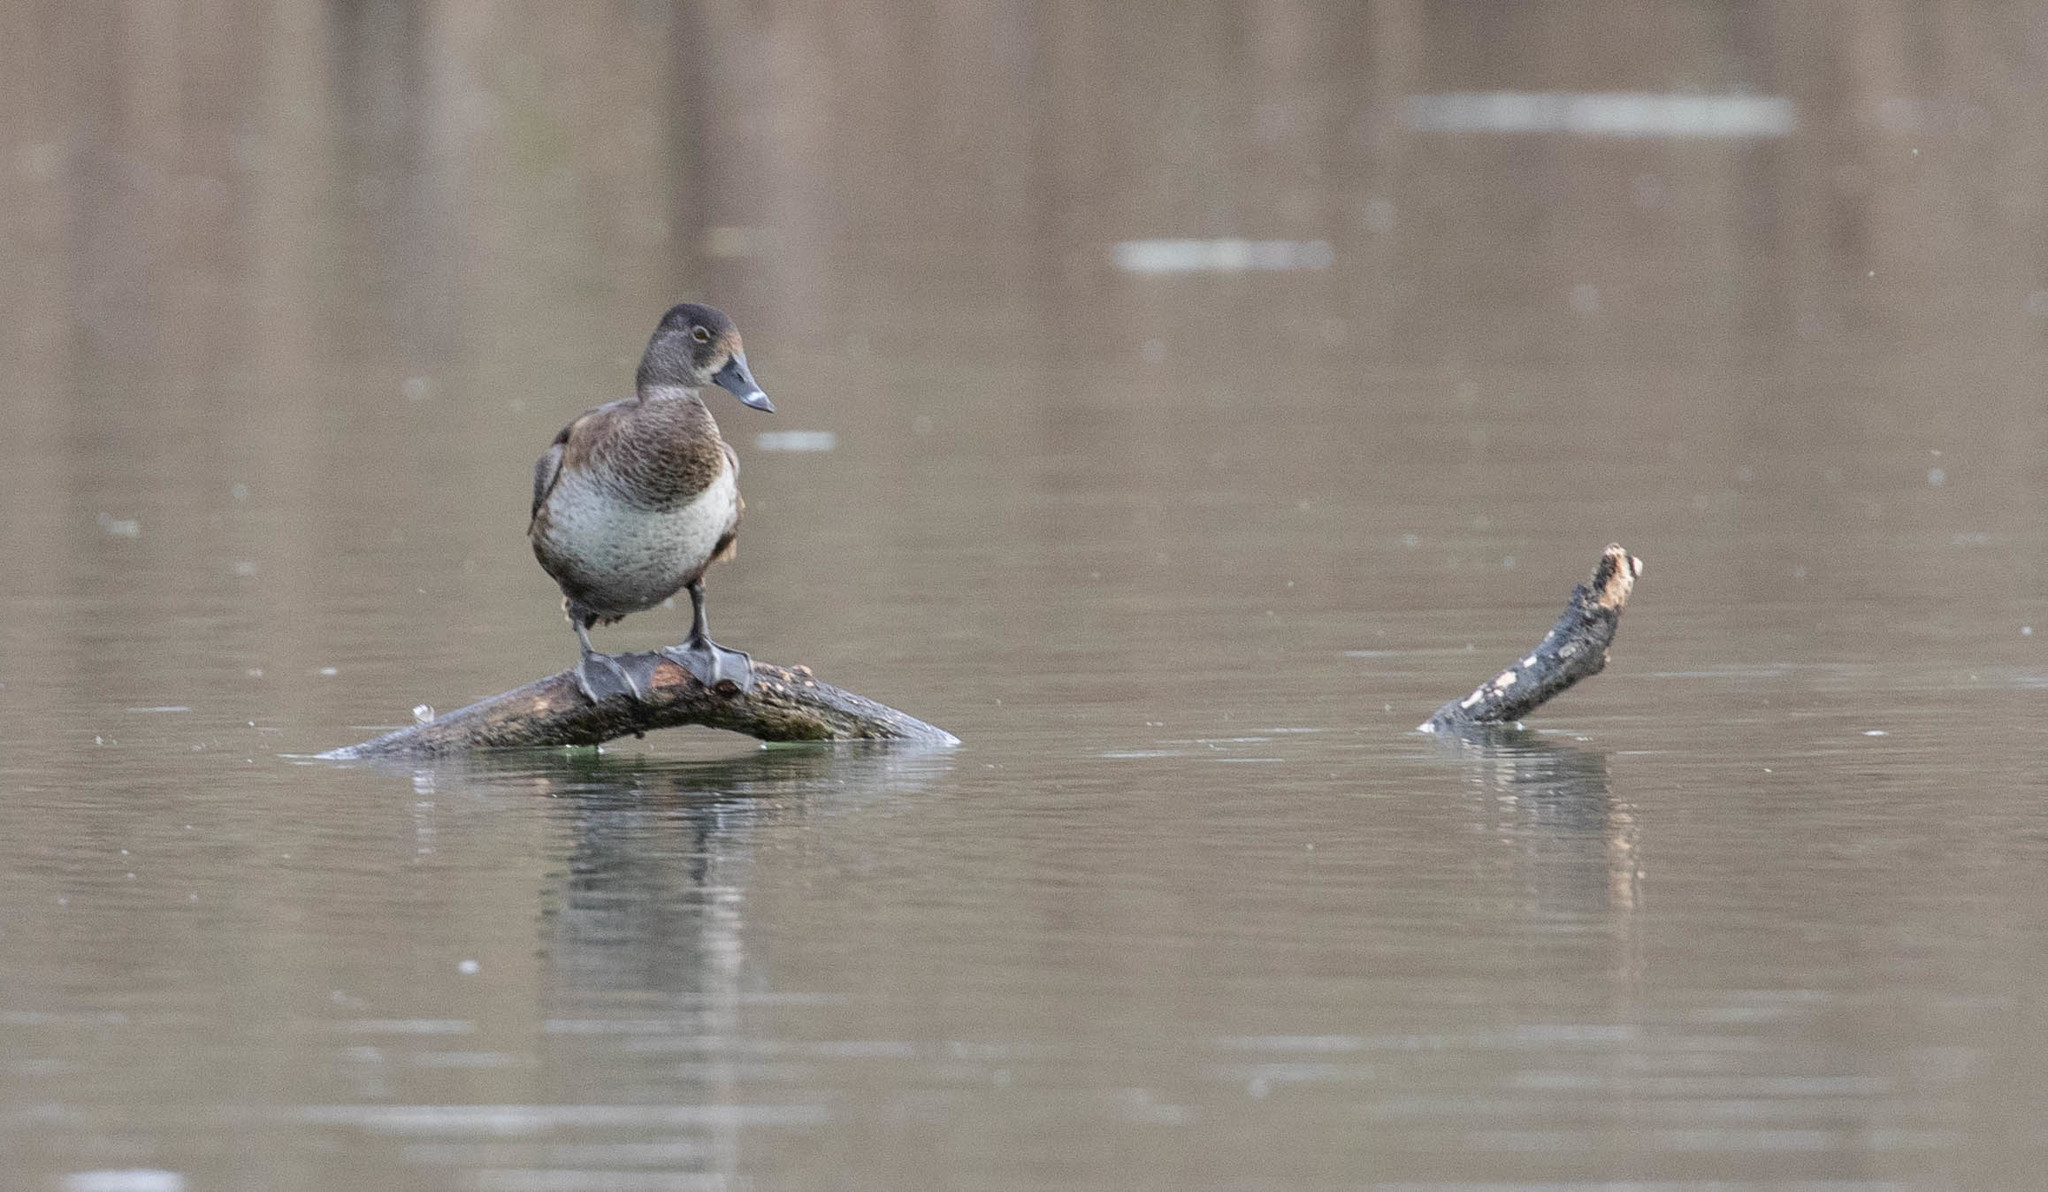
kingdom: Animalia
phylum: Chordata
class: Aves
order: Anseriformes
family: Anatidae
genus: Aythya
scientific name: Aythya collaris
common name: Ring-necked duck
